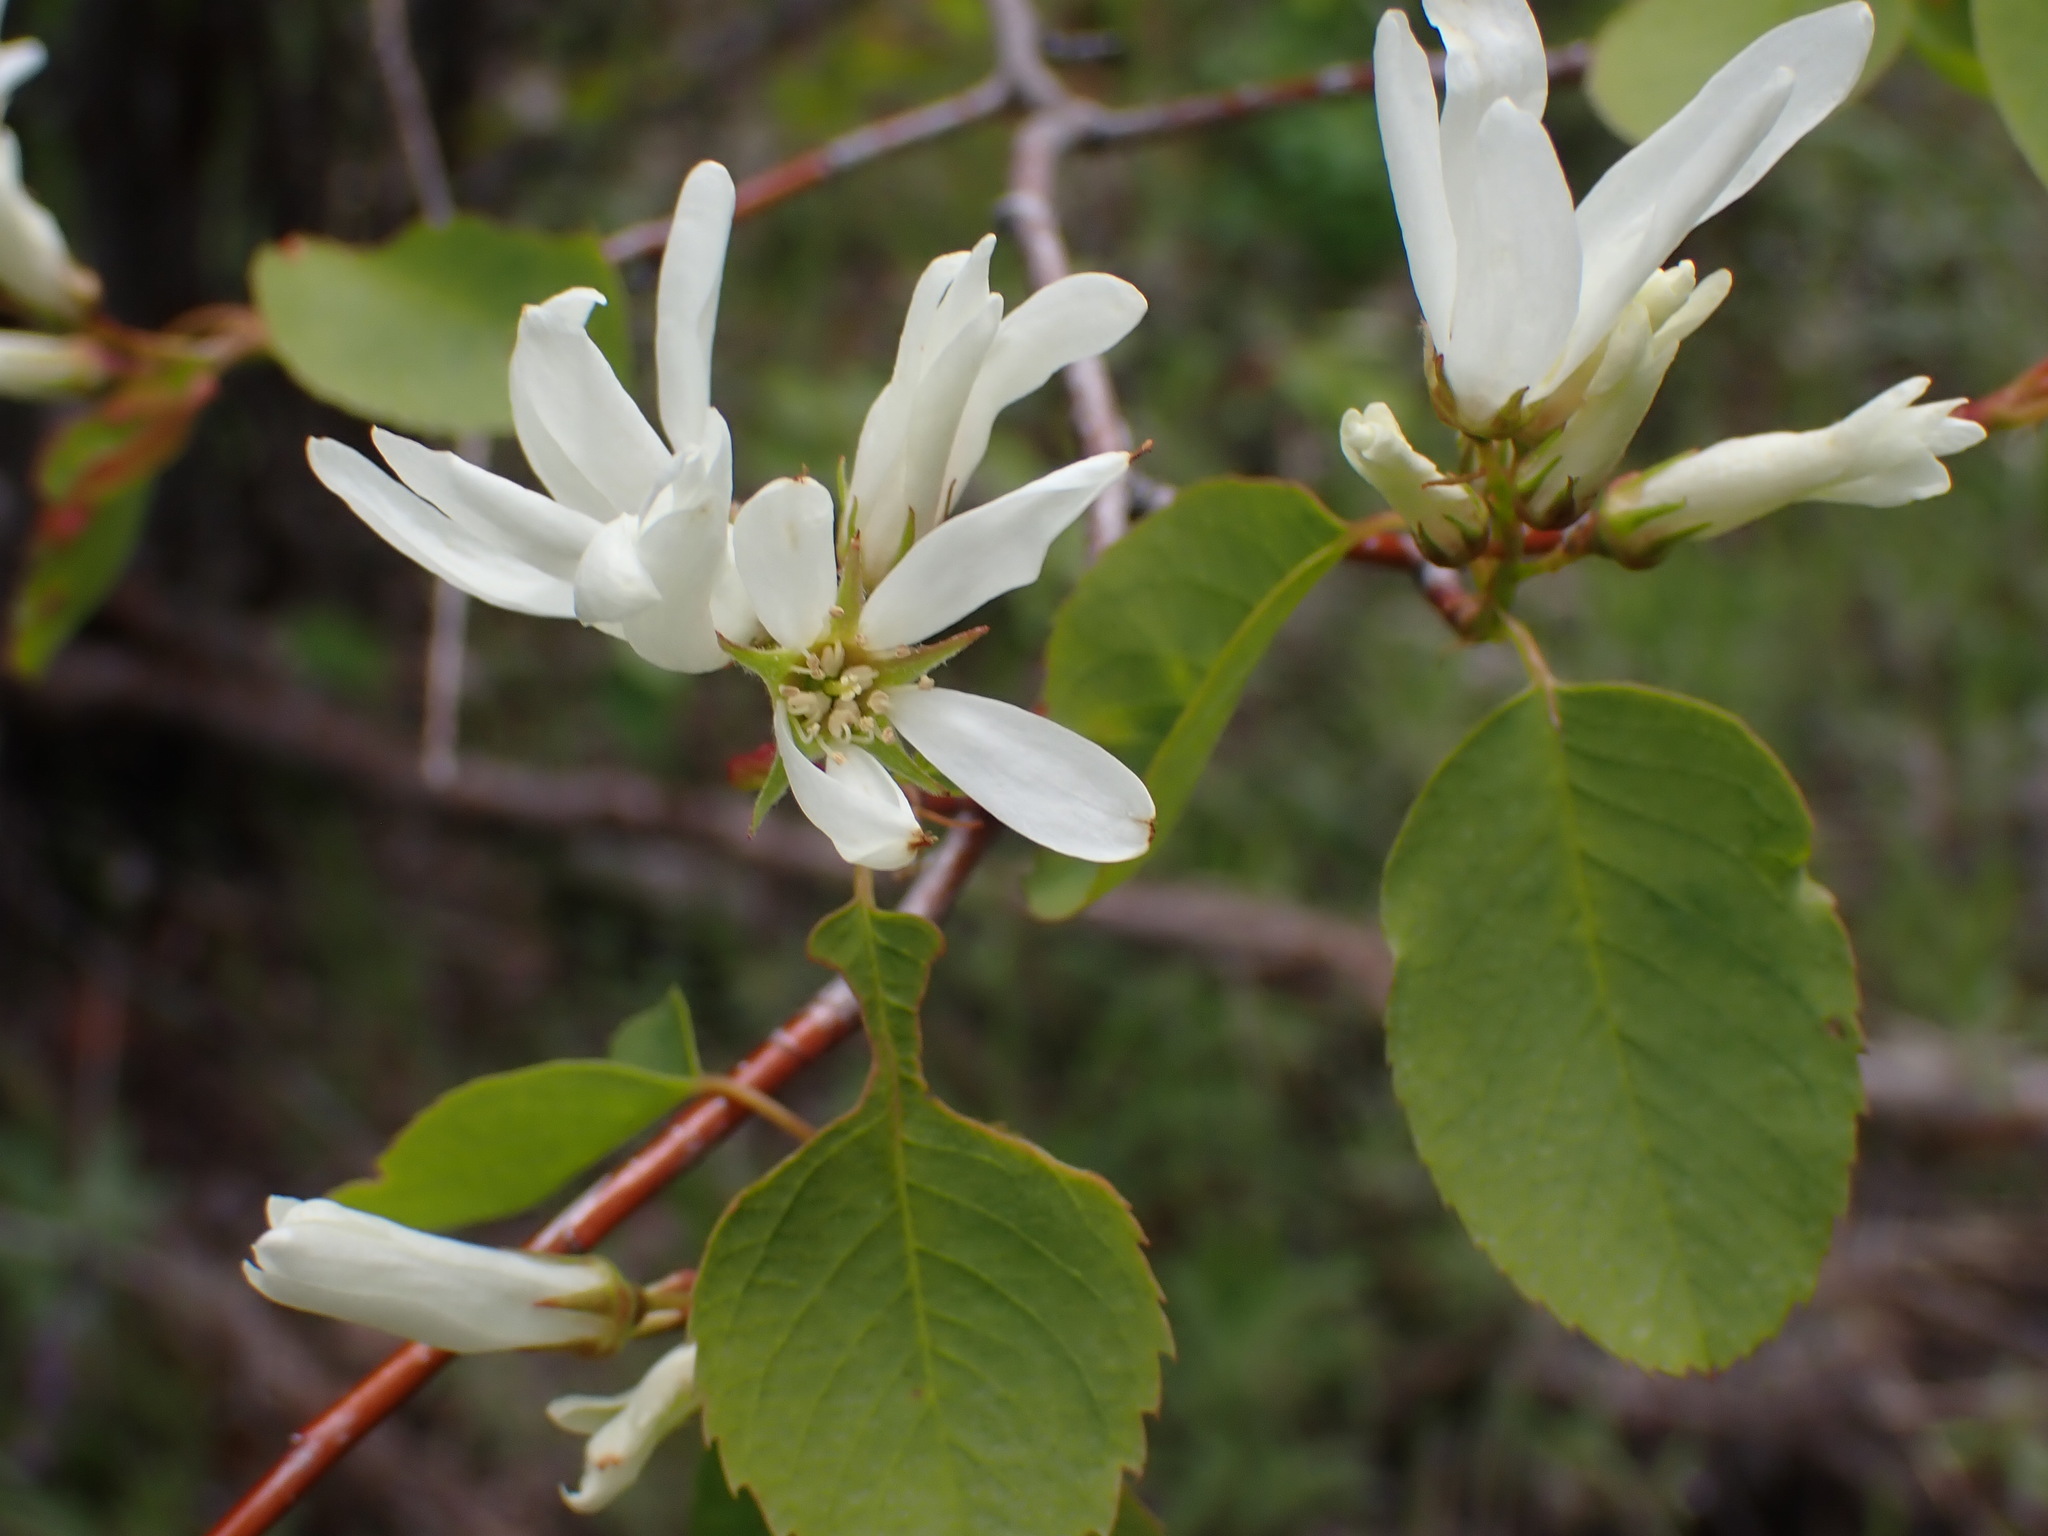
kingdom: Plantae
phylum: Tracheophyta
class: Magnoliopsida
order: Rosales
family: Rosaceae
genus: Amelanchier
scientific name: Amelanchier alnifolia
